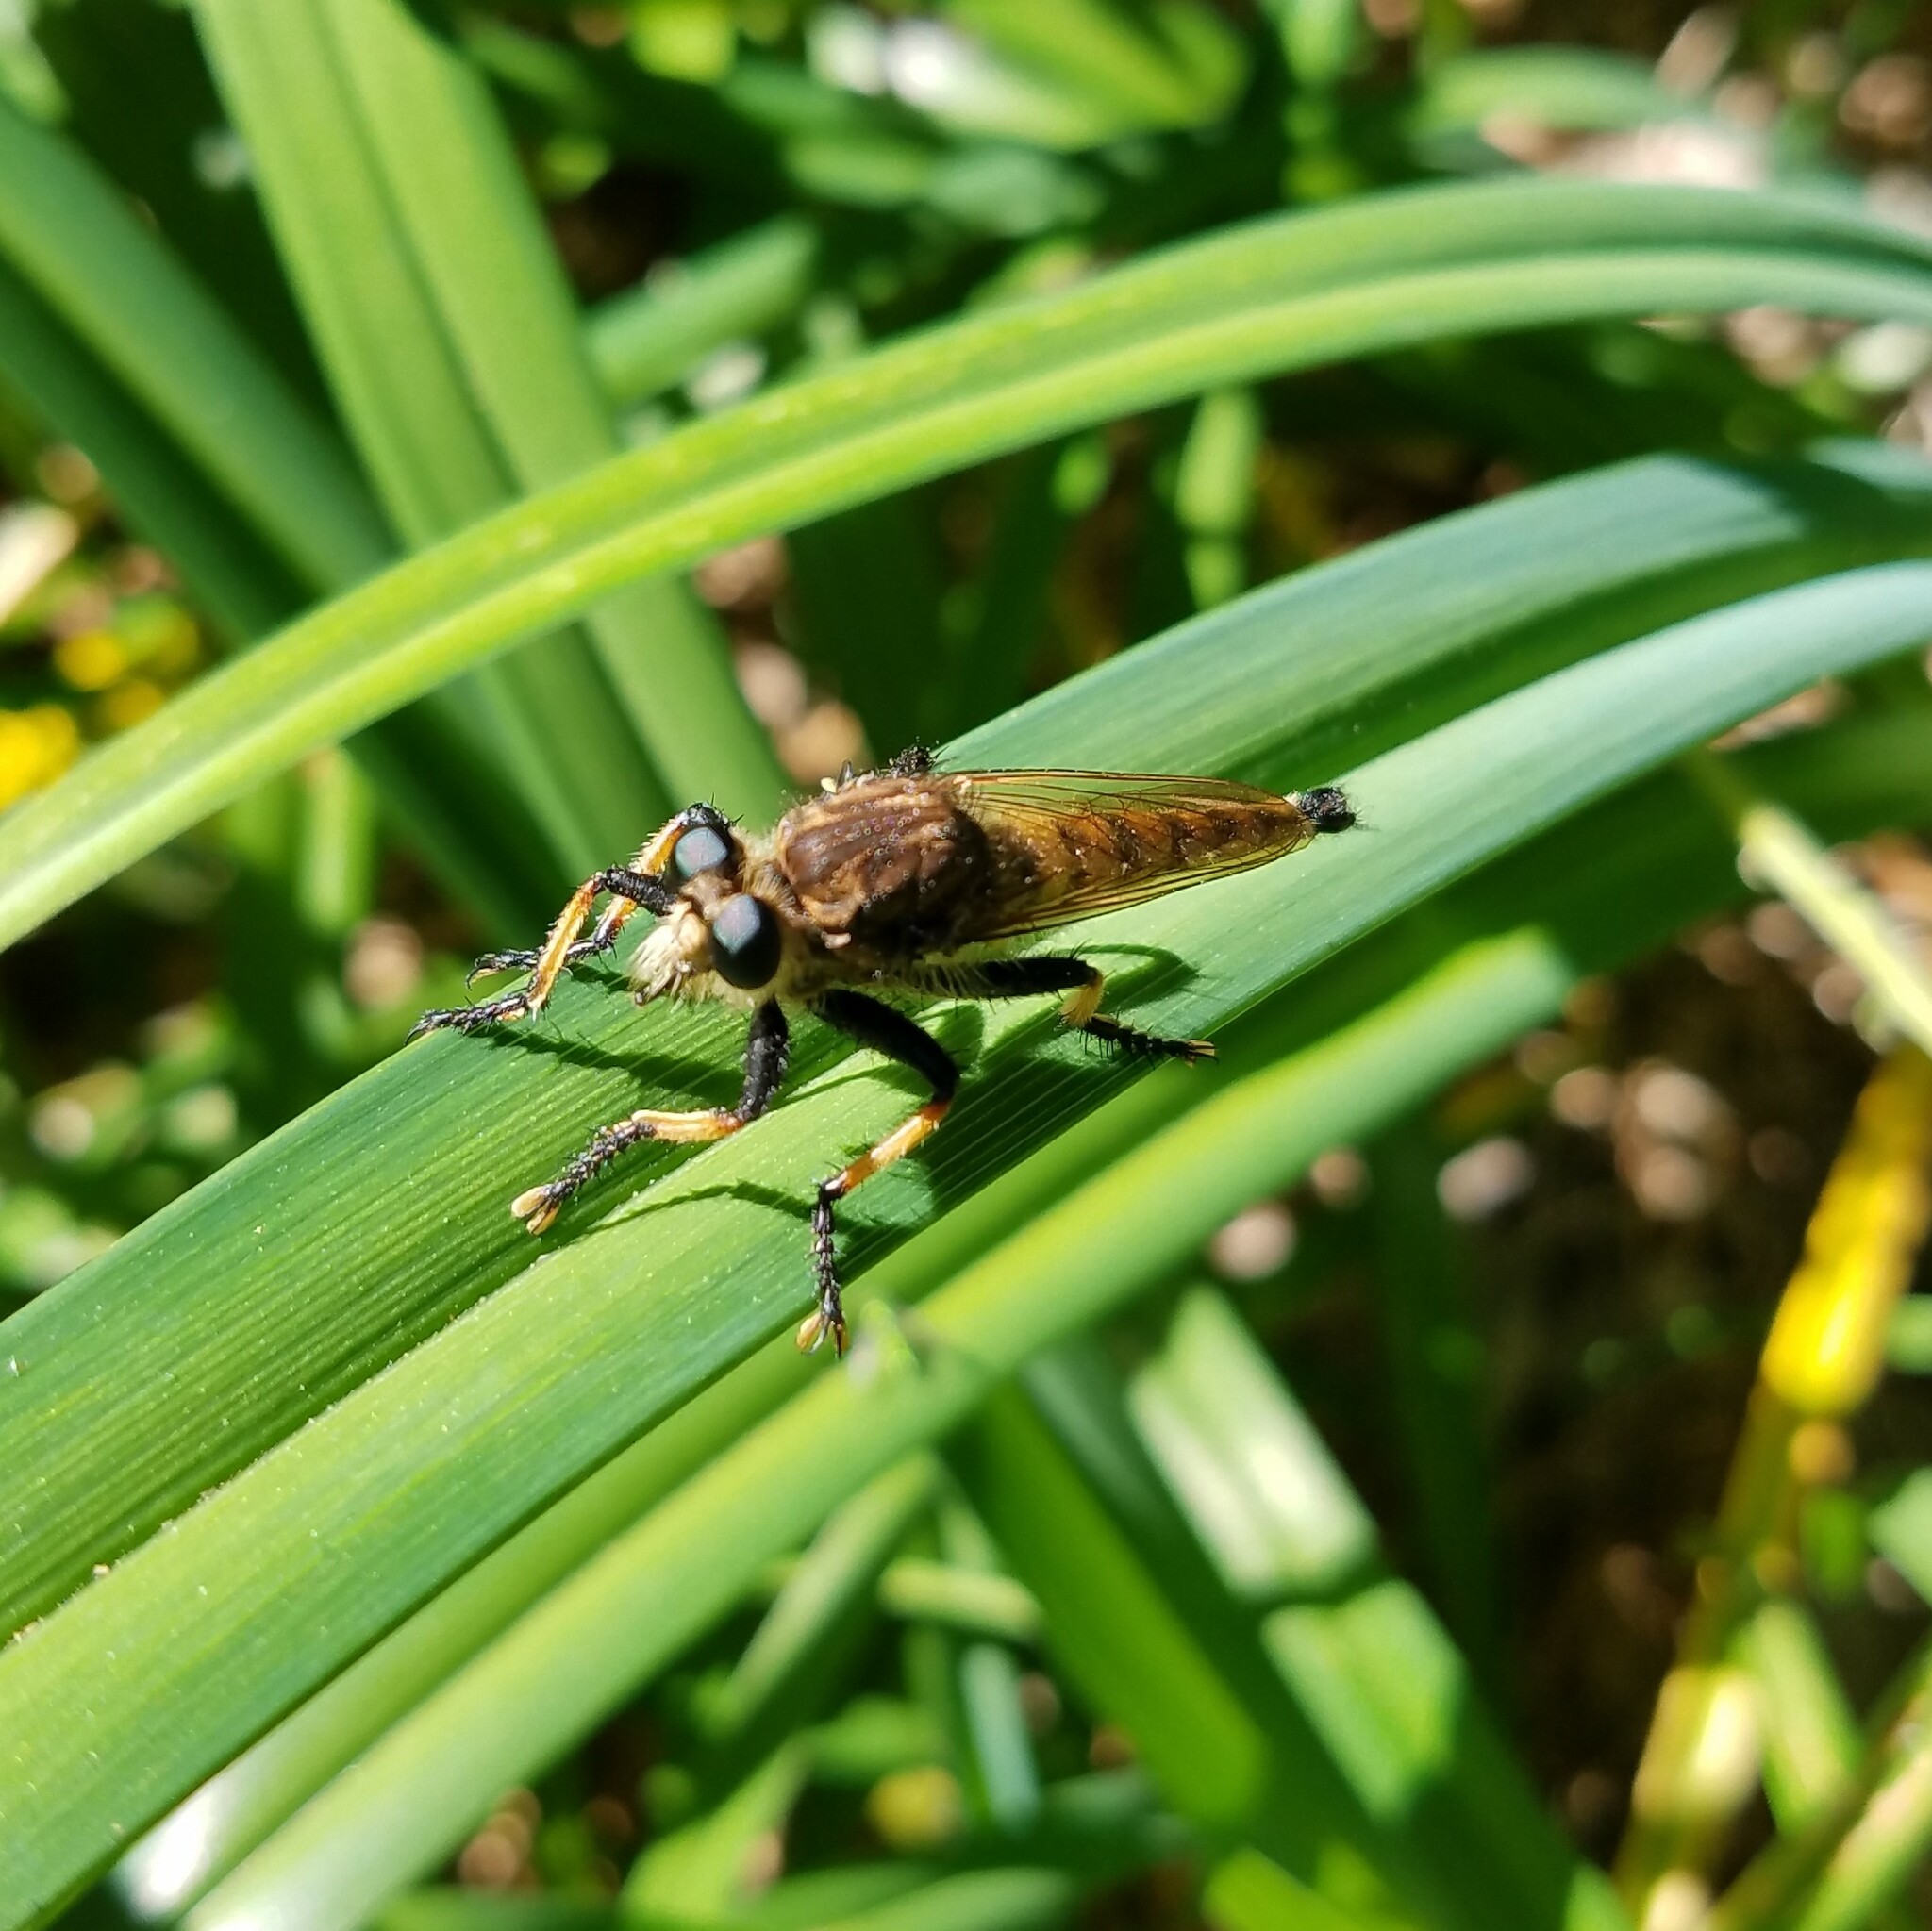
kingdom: Animalia
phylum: Arthropoda
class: Insecta
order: Diptera
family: Asilidae
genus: Promachus
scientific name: Promachus rufipes
